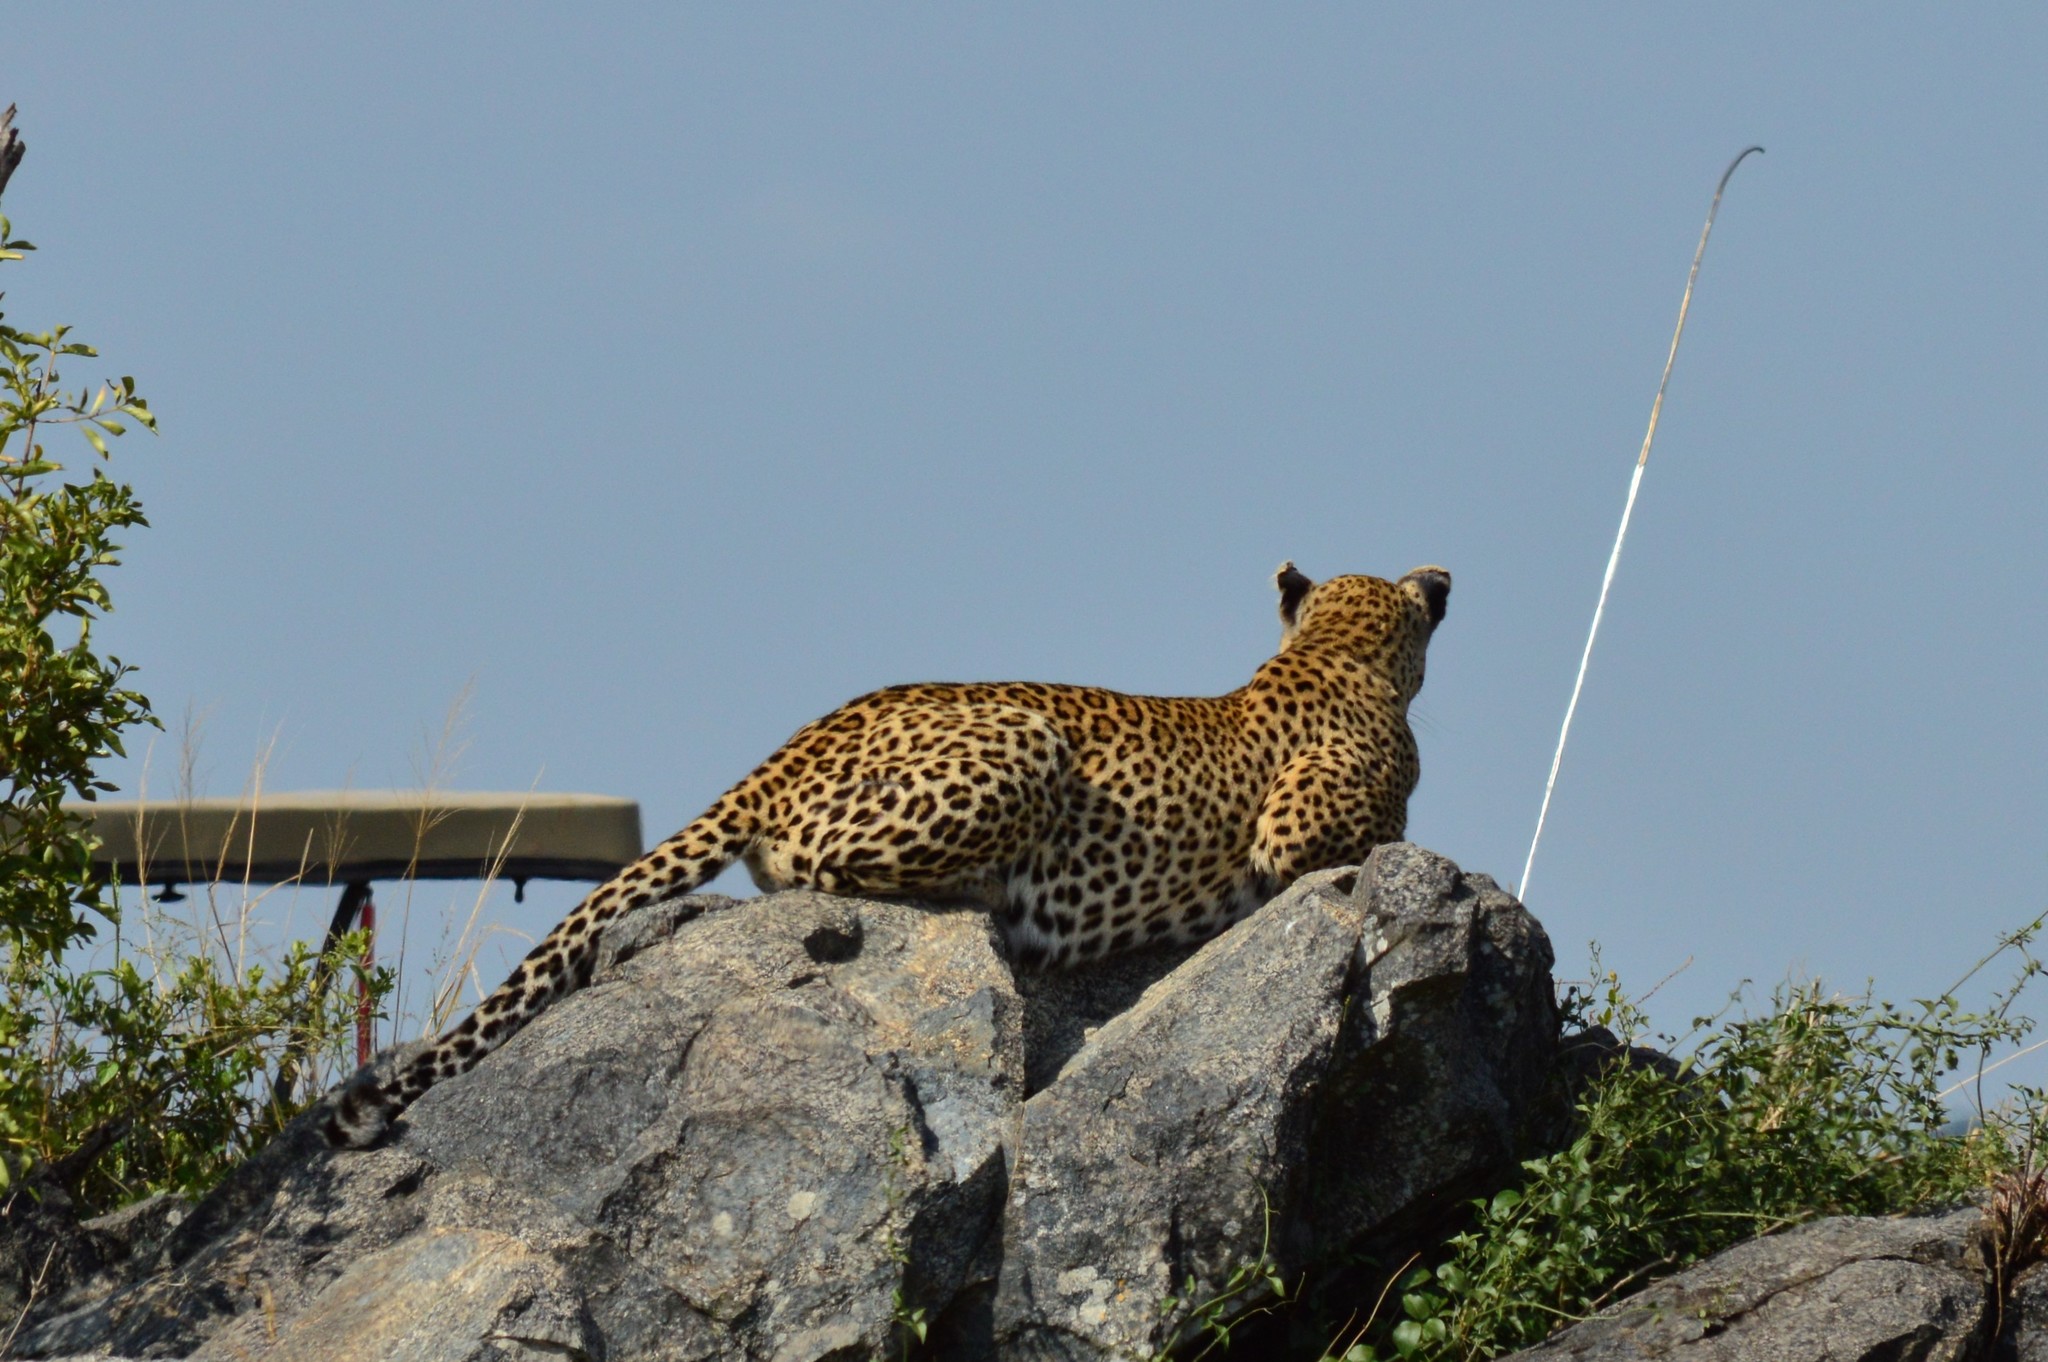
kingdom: Animalia
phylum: Chordata
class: Mammalia
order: Carnivora
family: Felidae
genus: Panthera
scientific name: Panthera pardus
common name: Leopard
